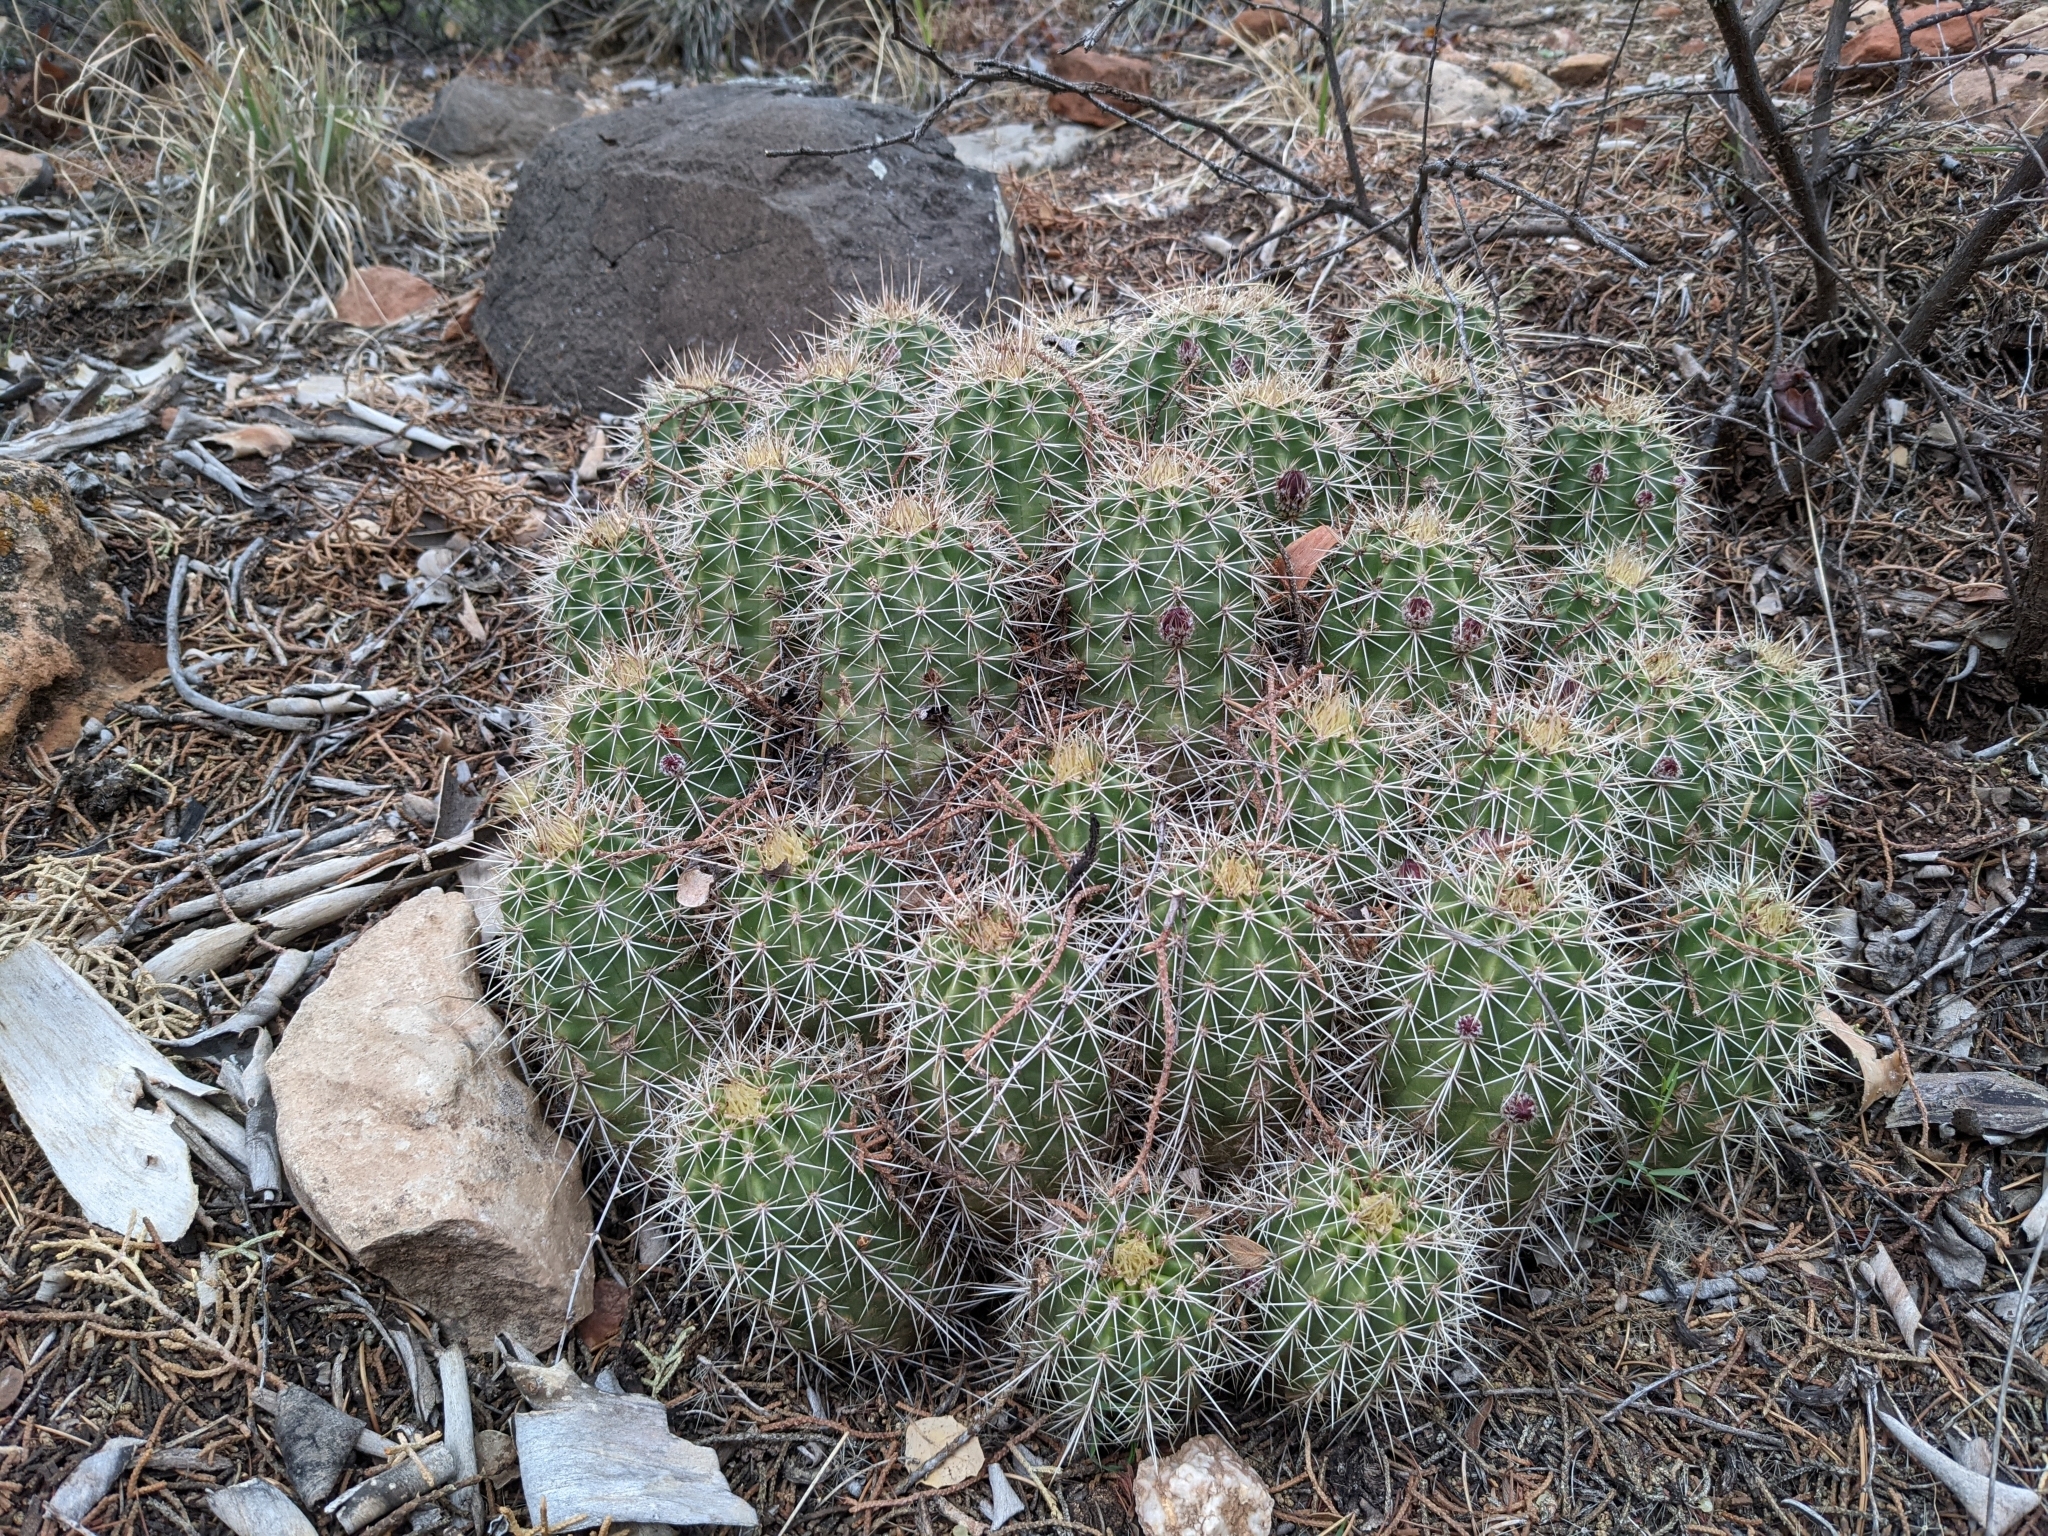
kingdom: Plantae
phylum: Tracheophyta
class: Magnoliopsida
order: Caryophyllales
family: Cactaceae
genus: Echinocereus
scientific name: Echinocereus bakeri
